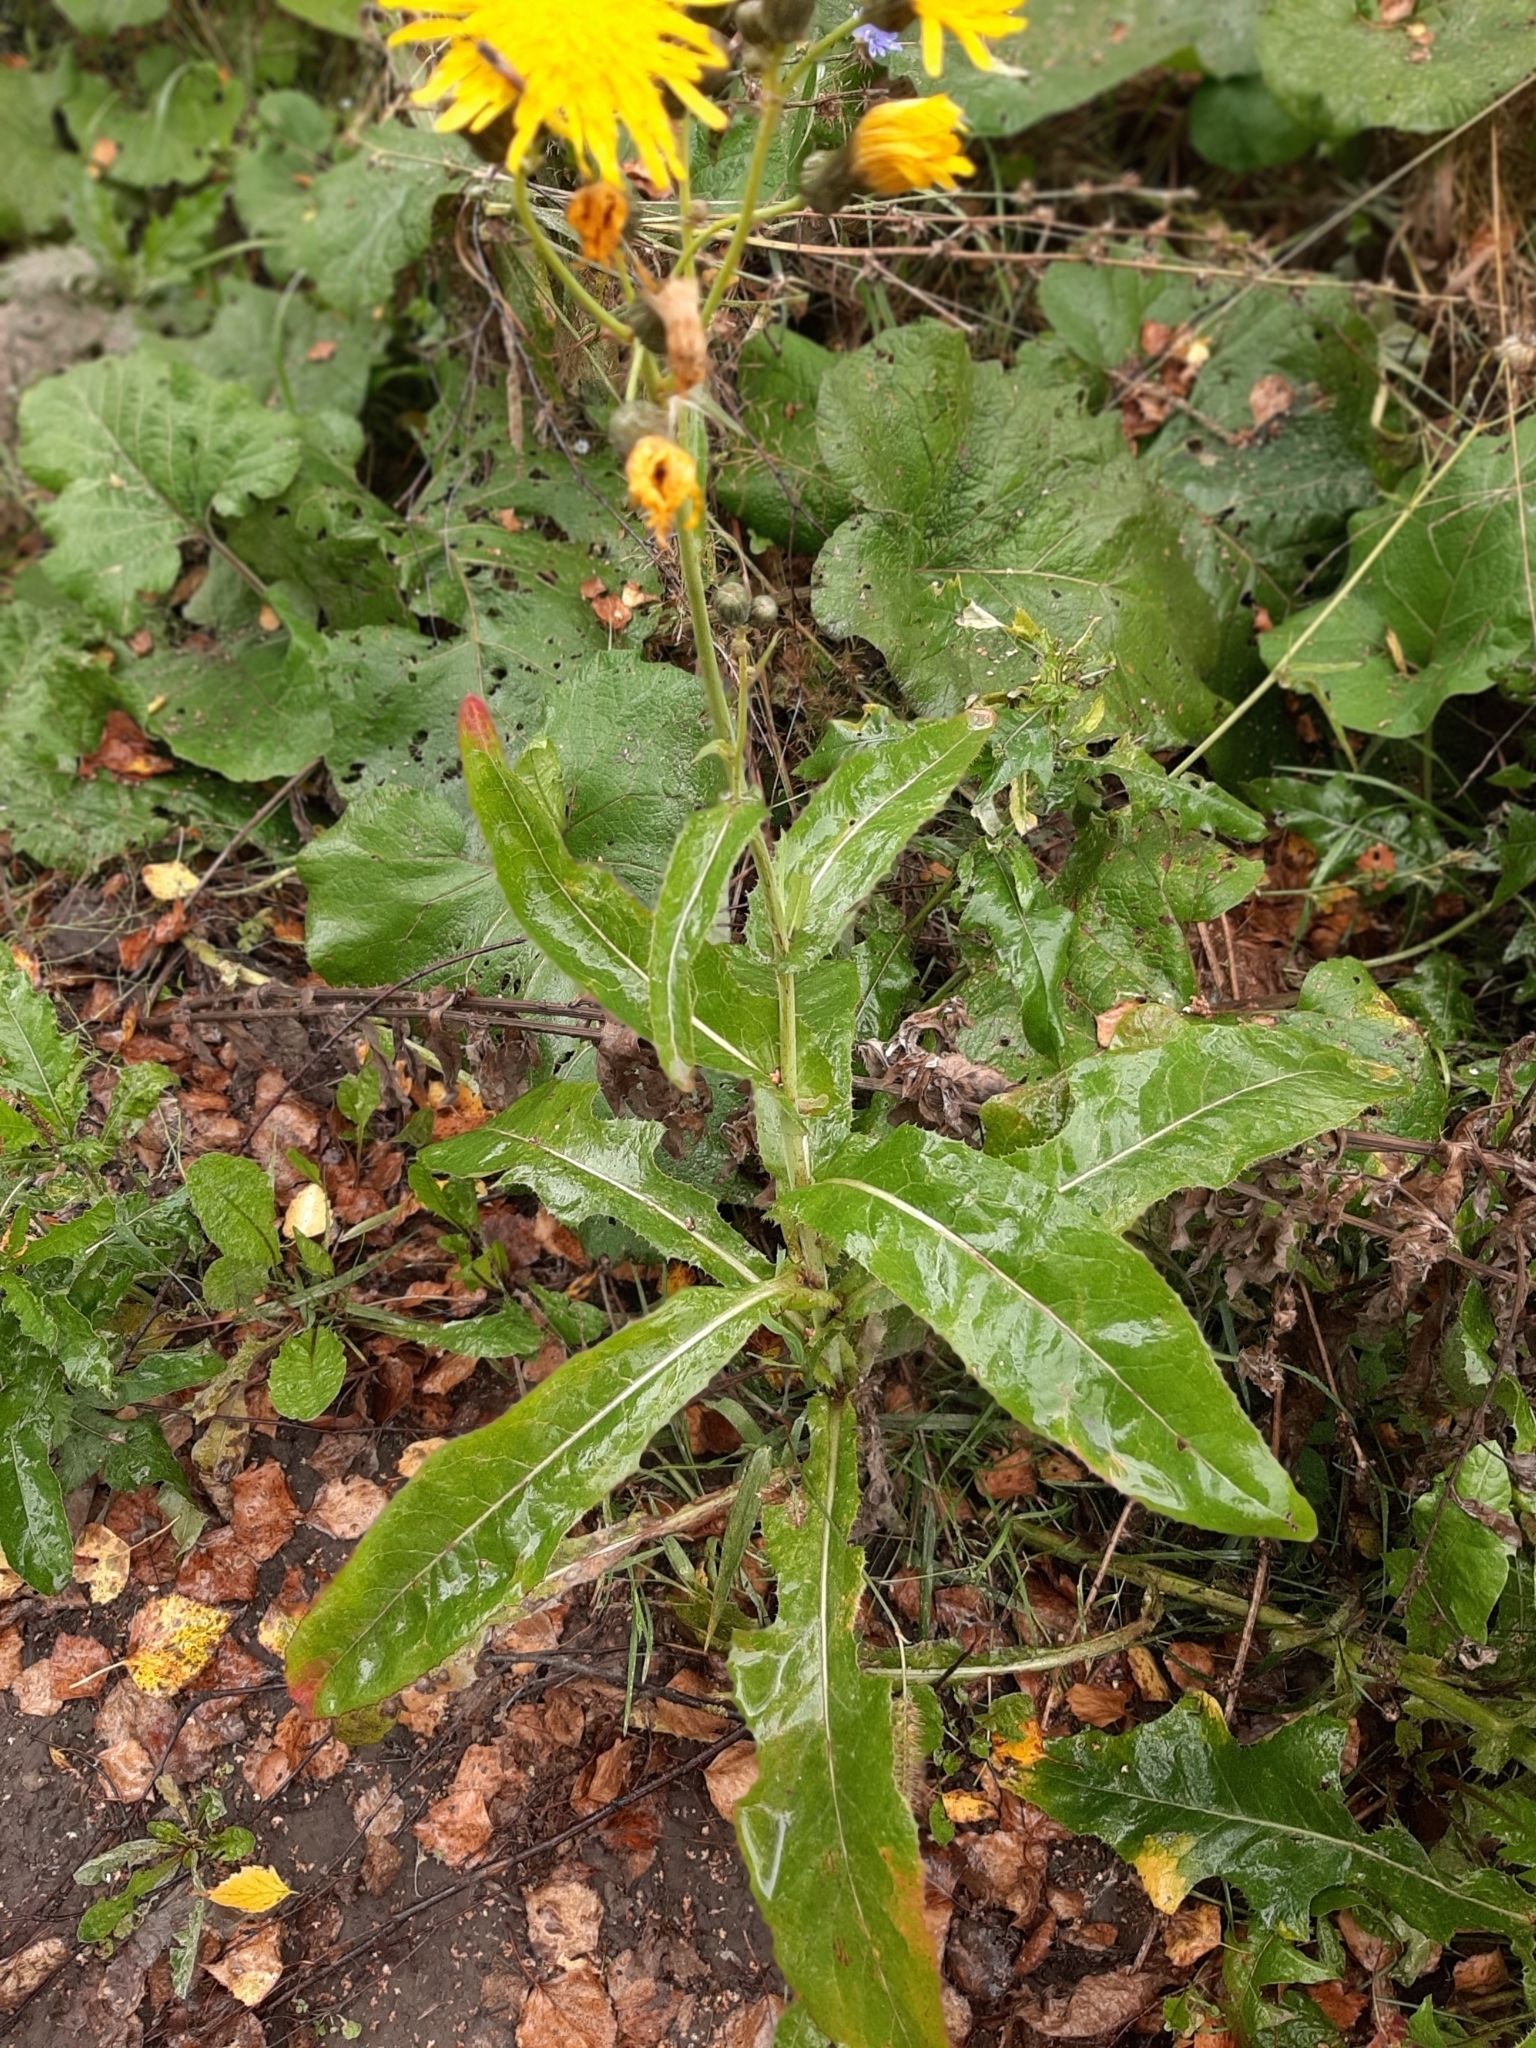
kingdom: Plantae
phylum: Tracheophyta
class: Magnoliopsida
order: Asterales
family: Asteraceae
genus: Sonchus
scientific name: Sonchus arvensis
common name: Perennial sow-thistle
